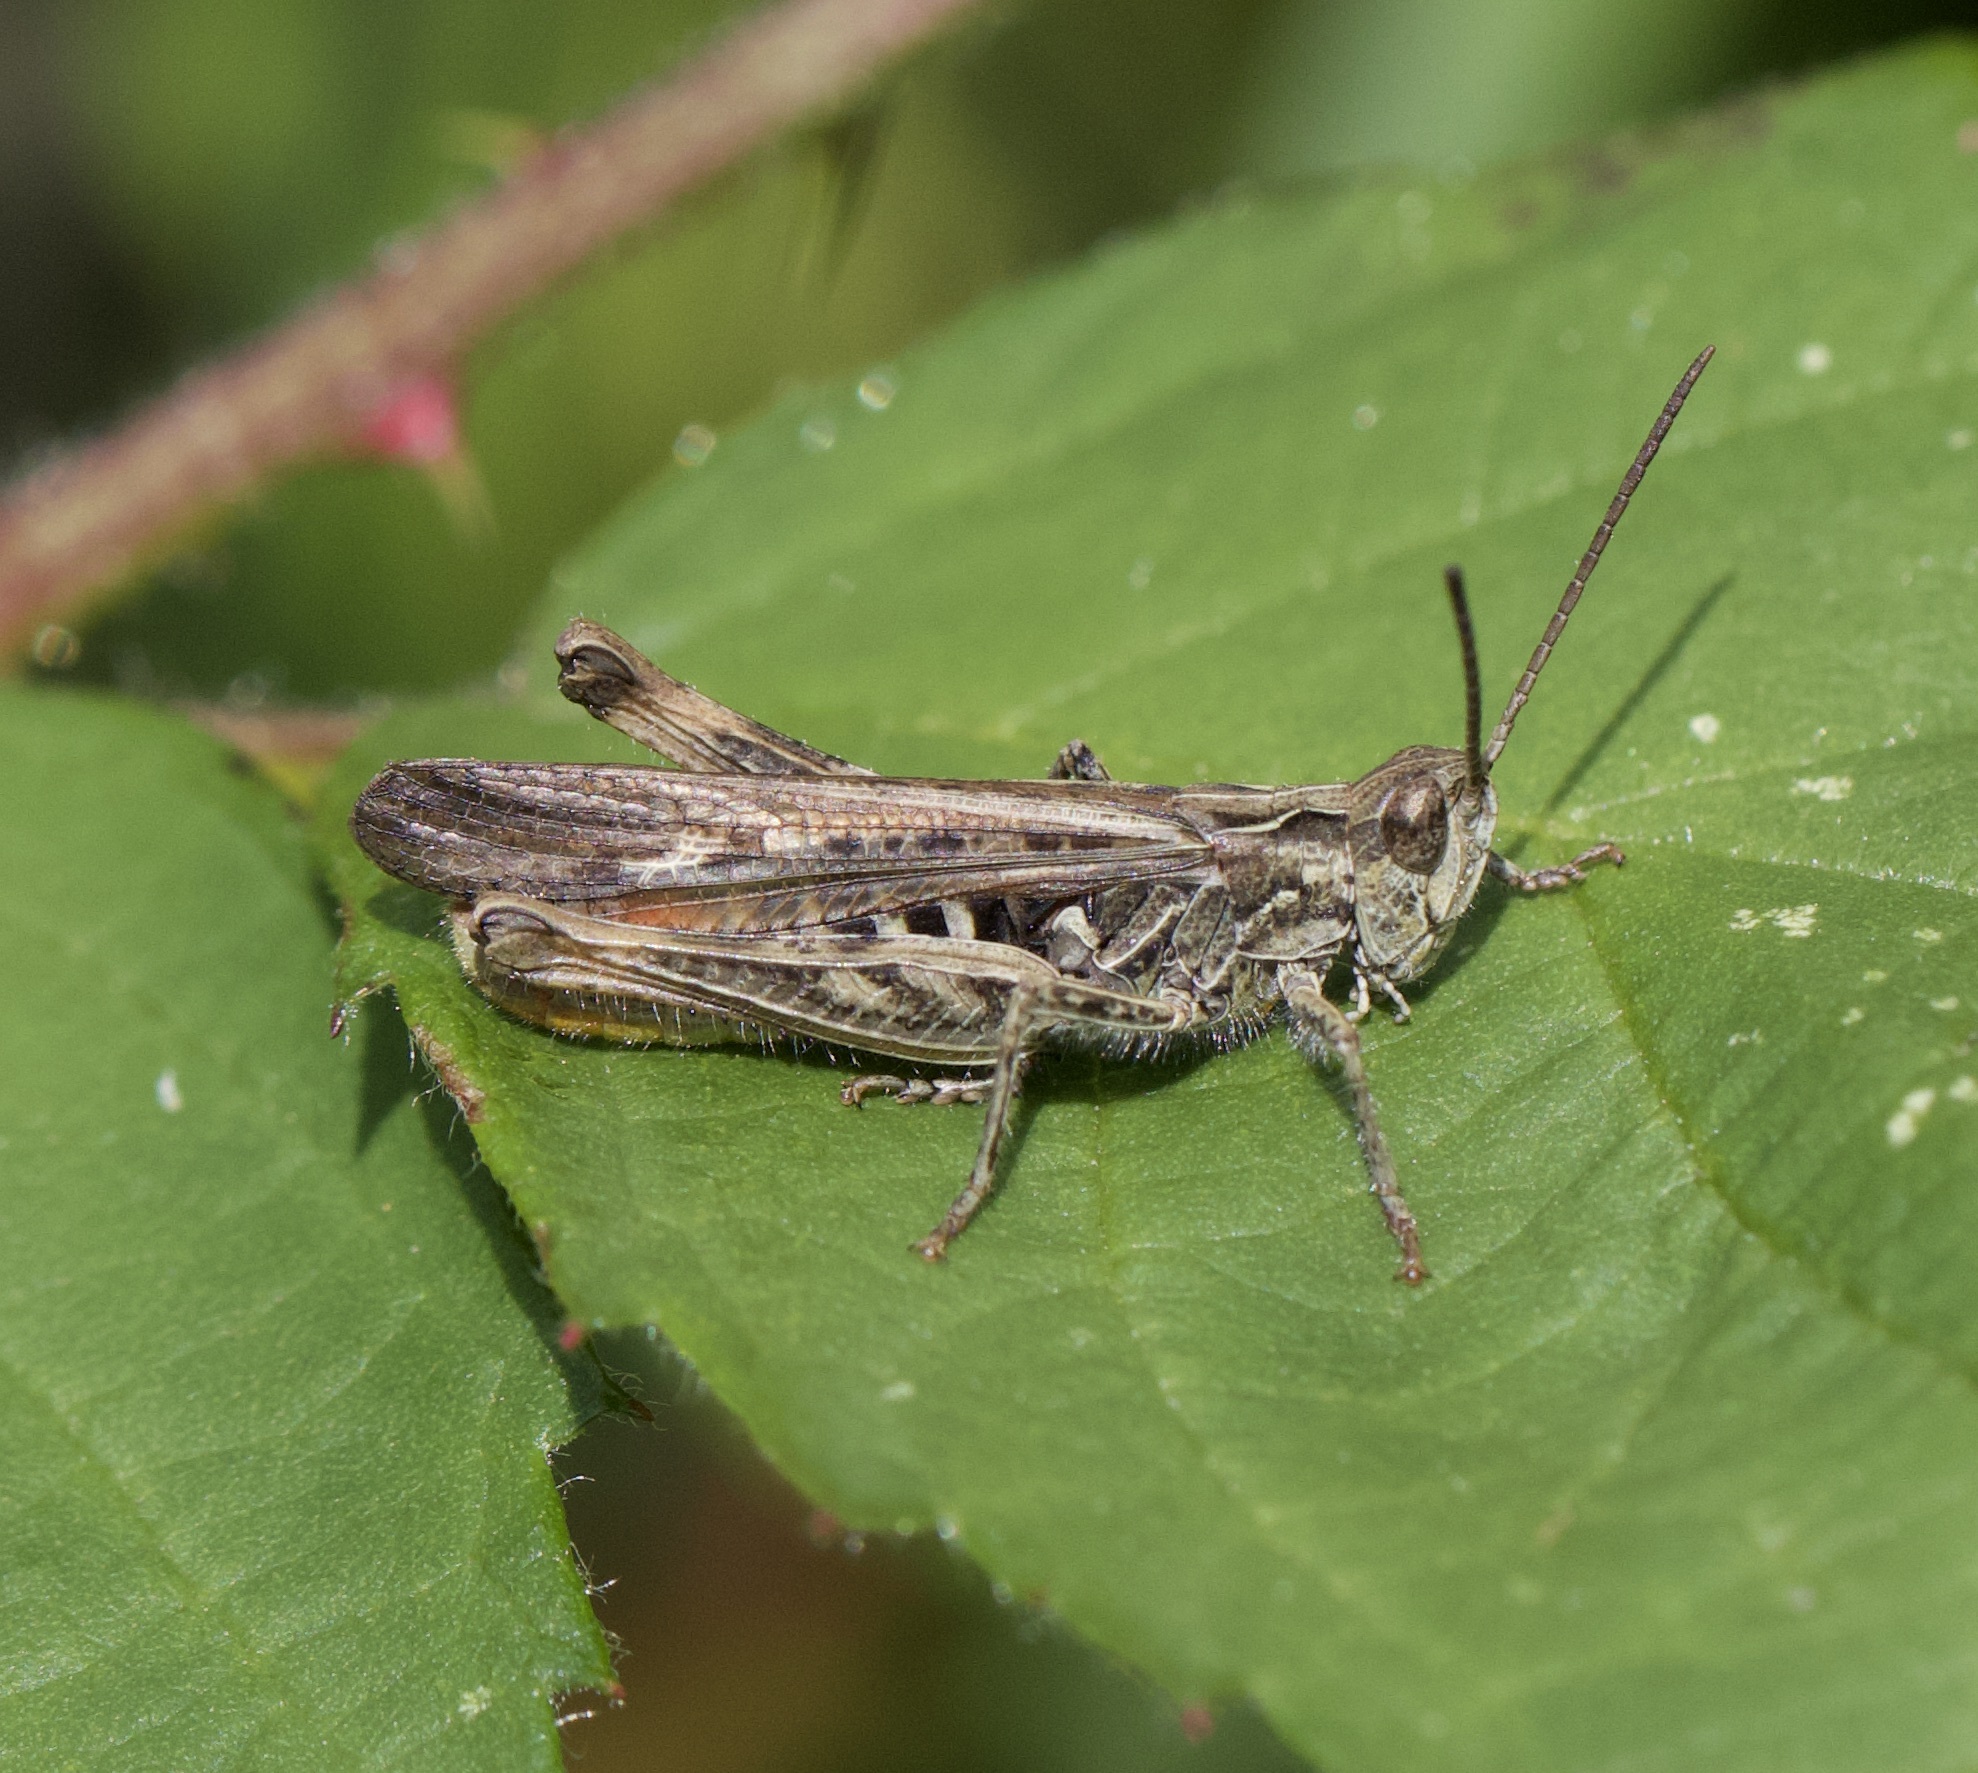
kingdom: Animalia
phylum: Arthropoda
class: Insecta
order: Orthoptera
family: Acrididae
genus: Chorthippus
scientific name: Chorthippus brunneus
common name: Field grasshopper
